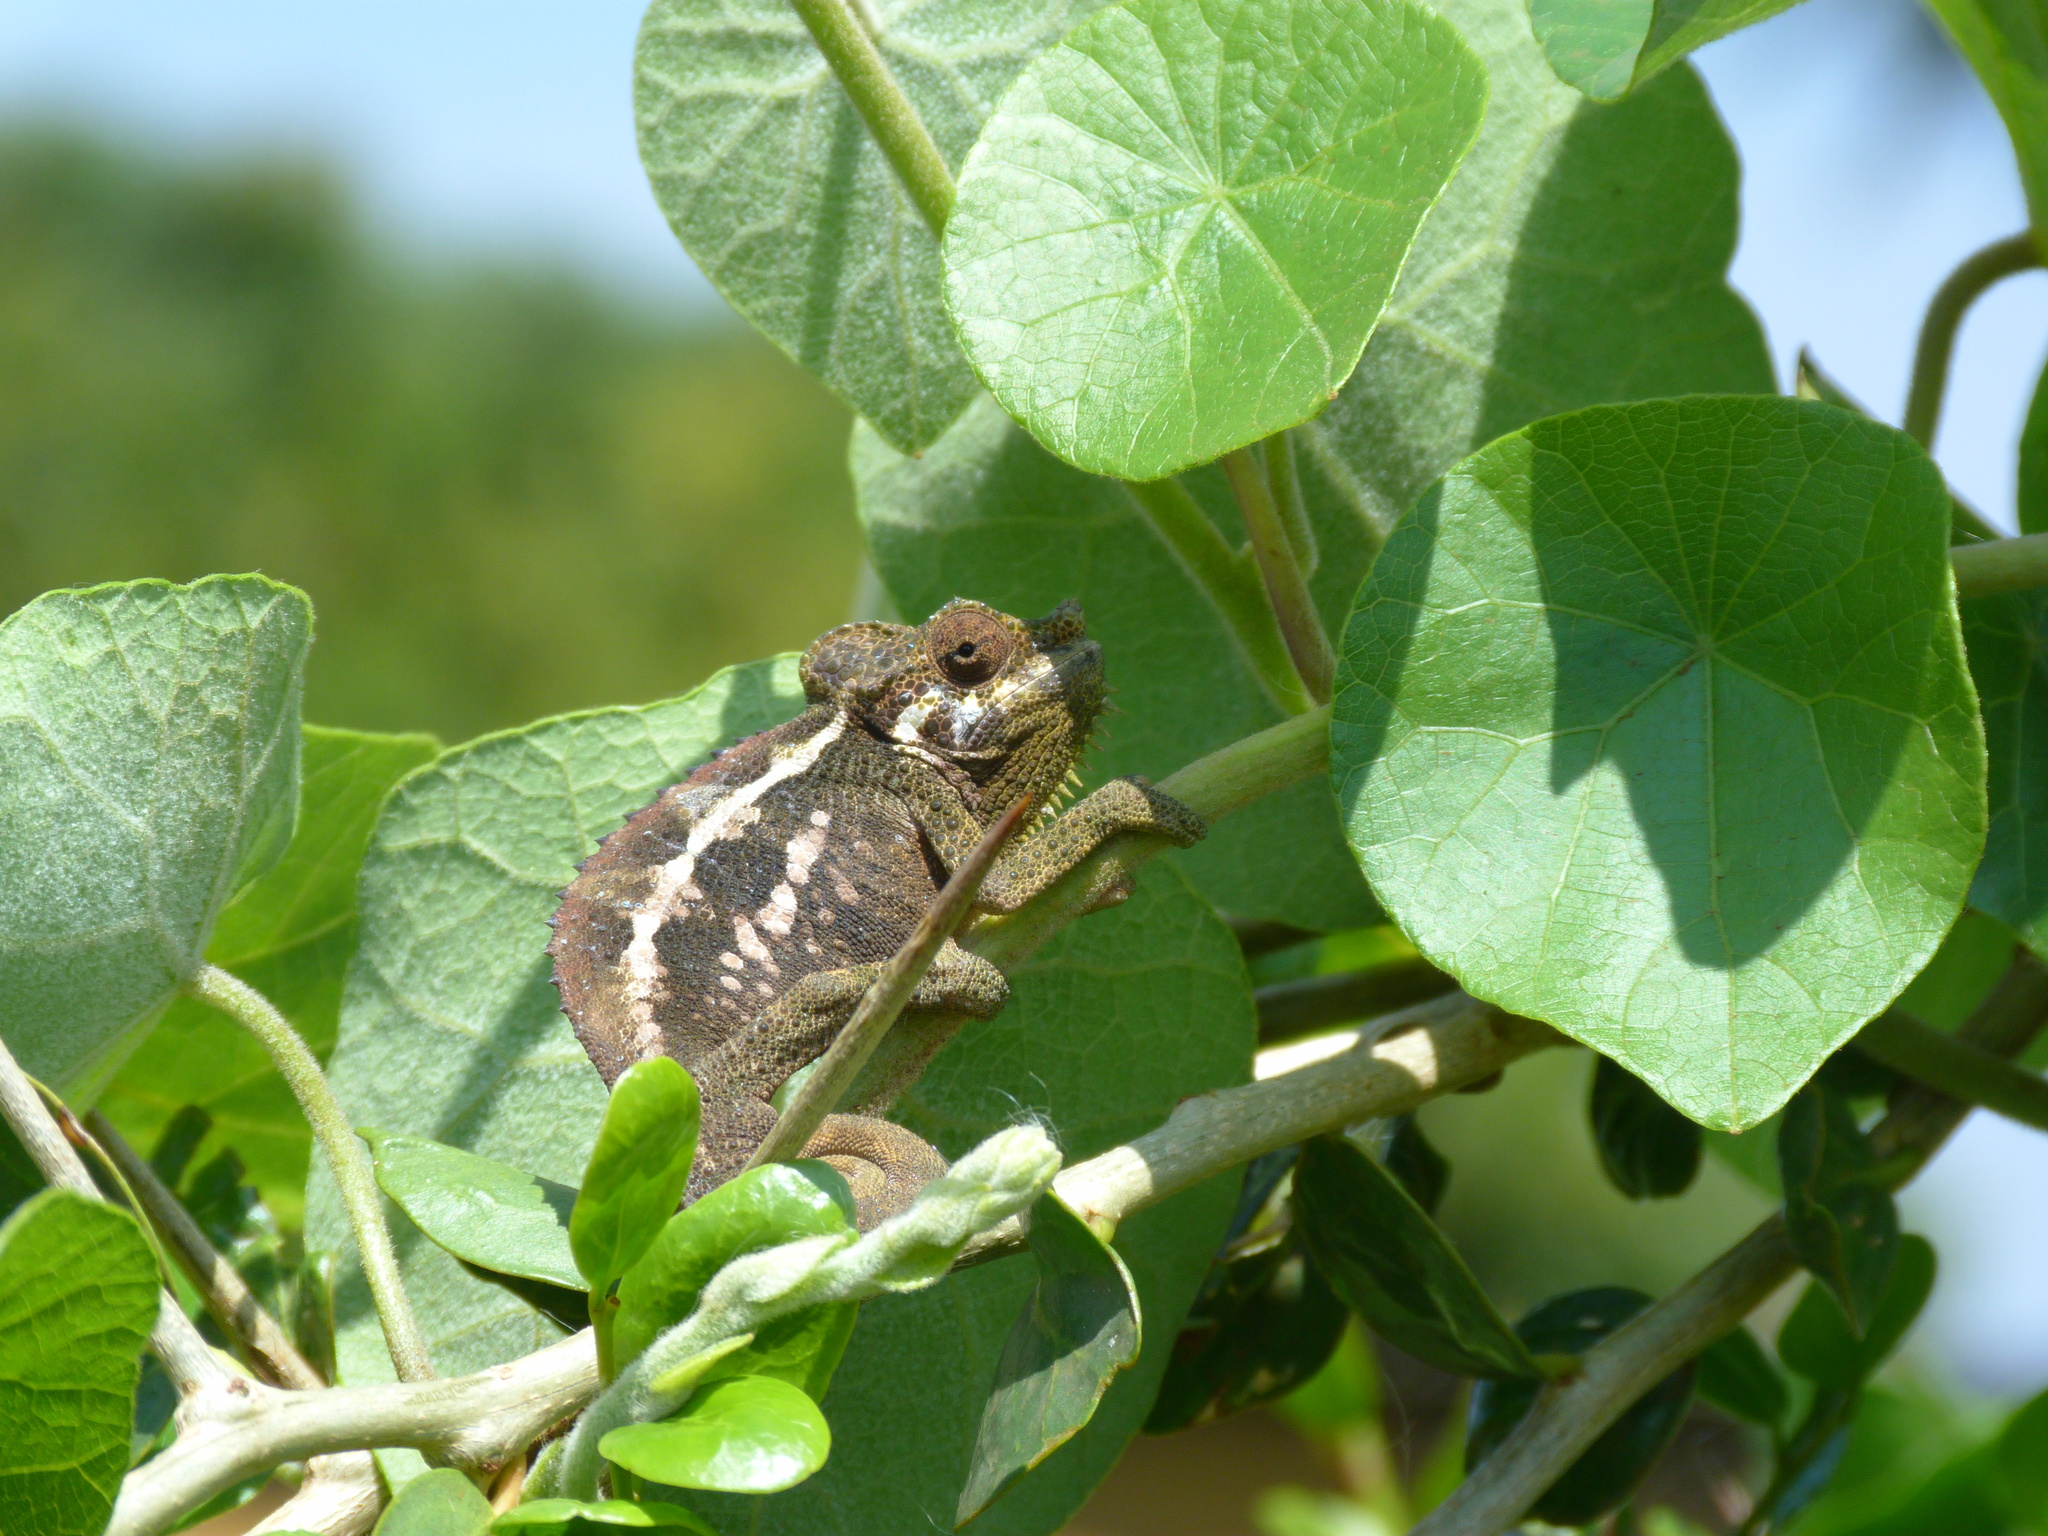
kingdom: Animalia
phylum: Chordata
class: Squamata
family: Chamaeleonidae
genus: Trioceros
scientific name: Trioceros hoehnelii
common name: High-casqued chameleon
